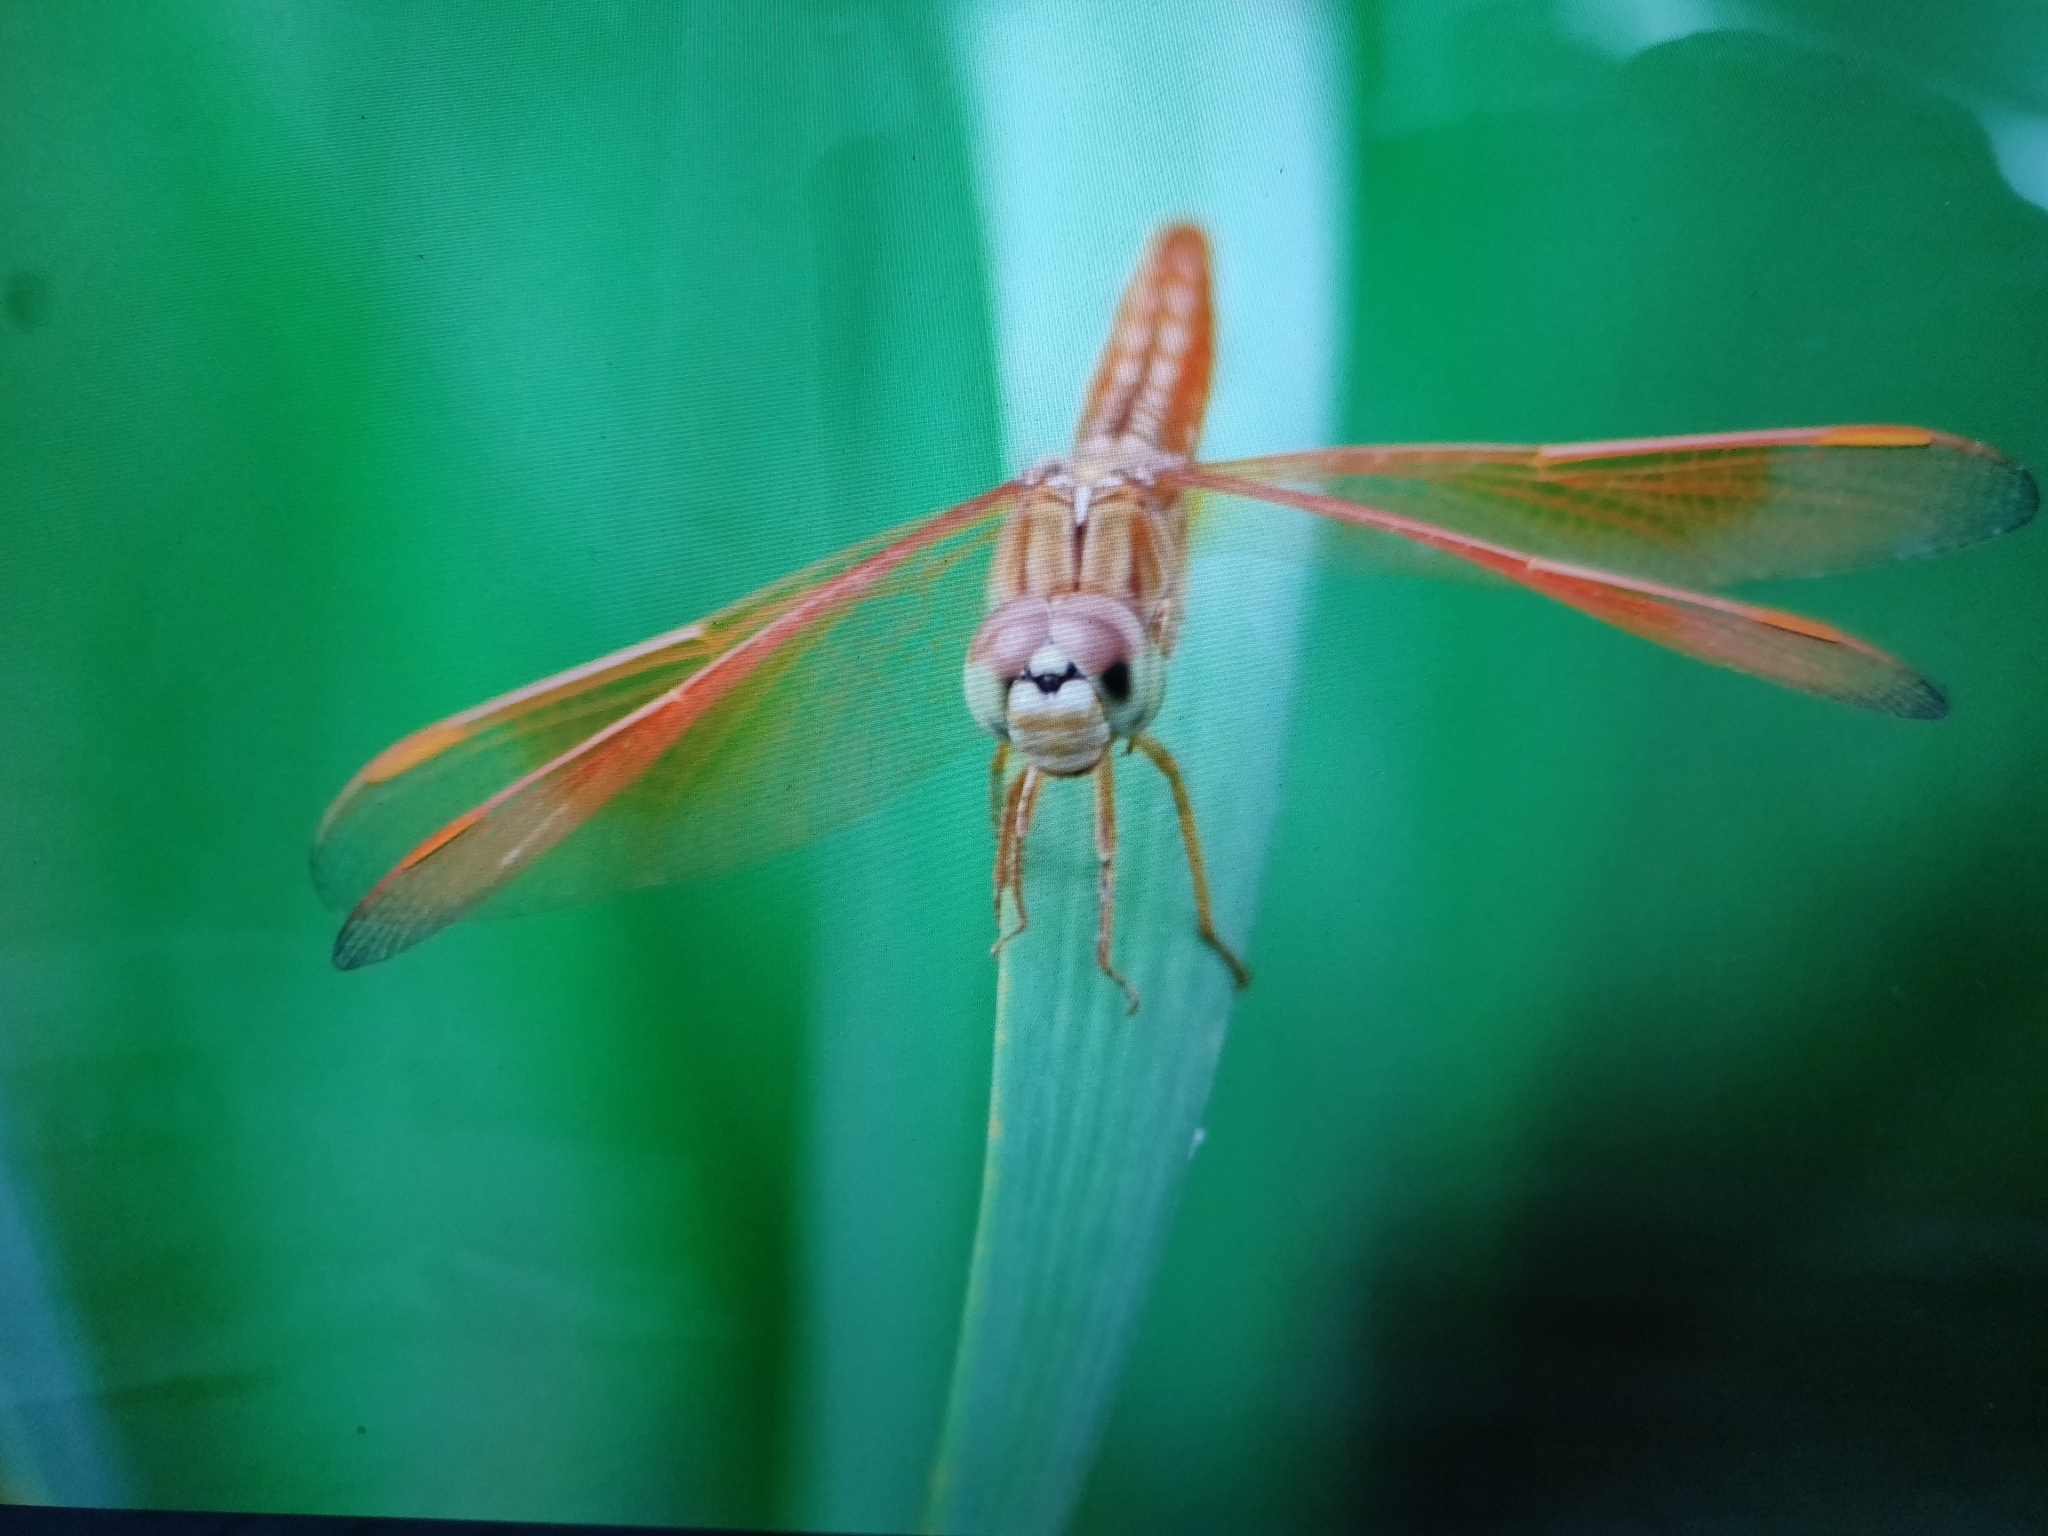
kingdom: Animalia
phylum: Arthropoda
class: Insecta
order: Odonata
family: Libellulidae
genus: Brachythemis
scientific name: Brachythemis contaminata
